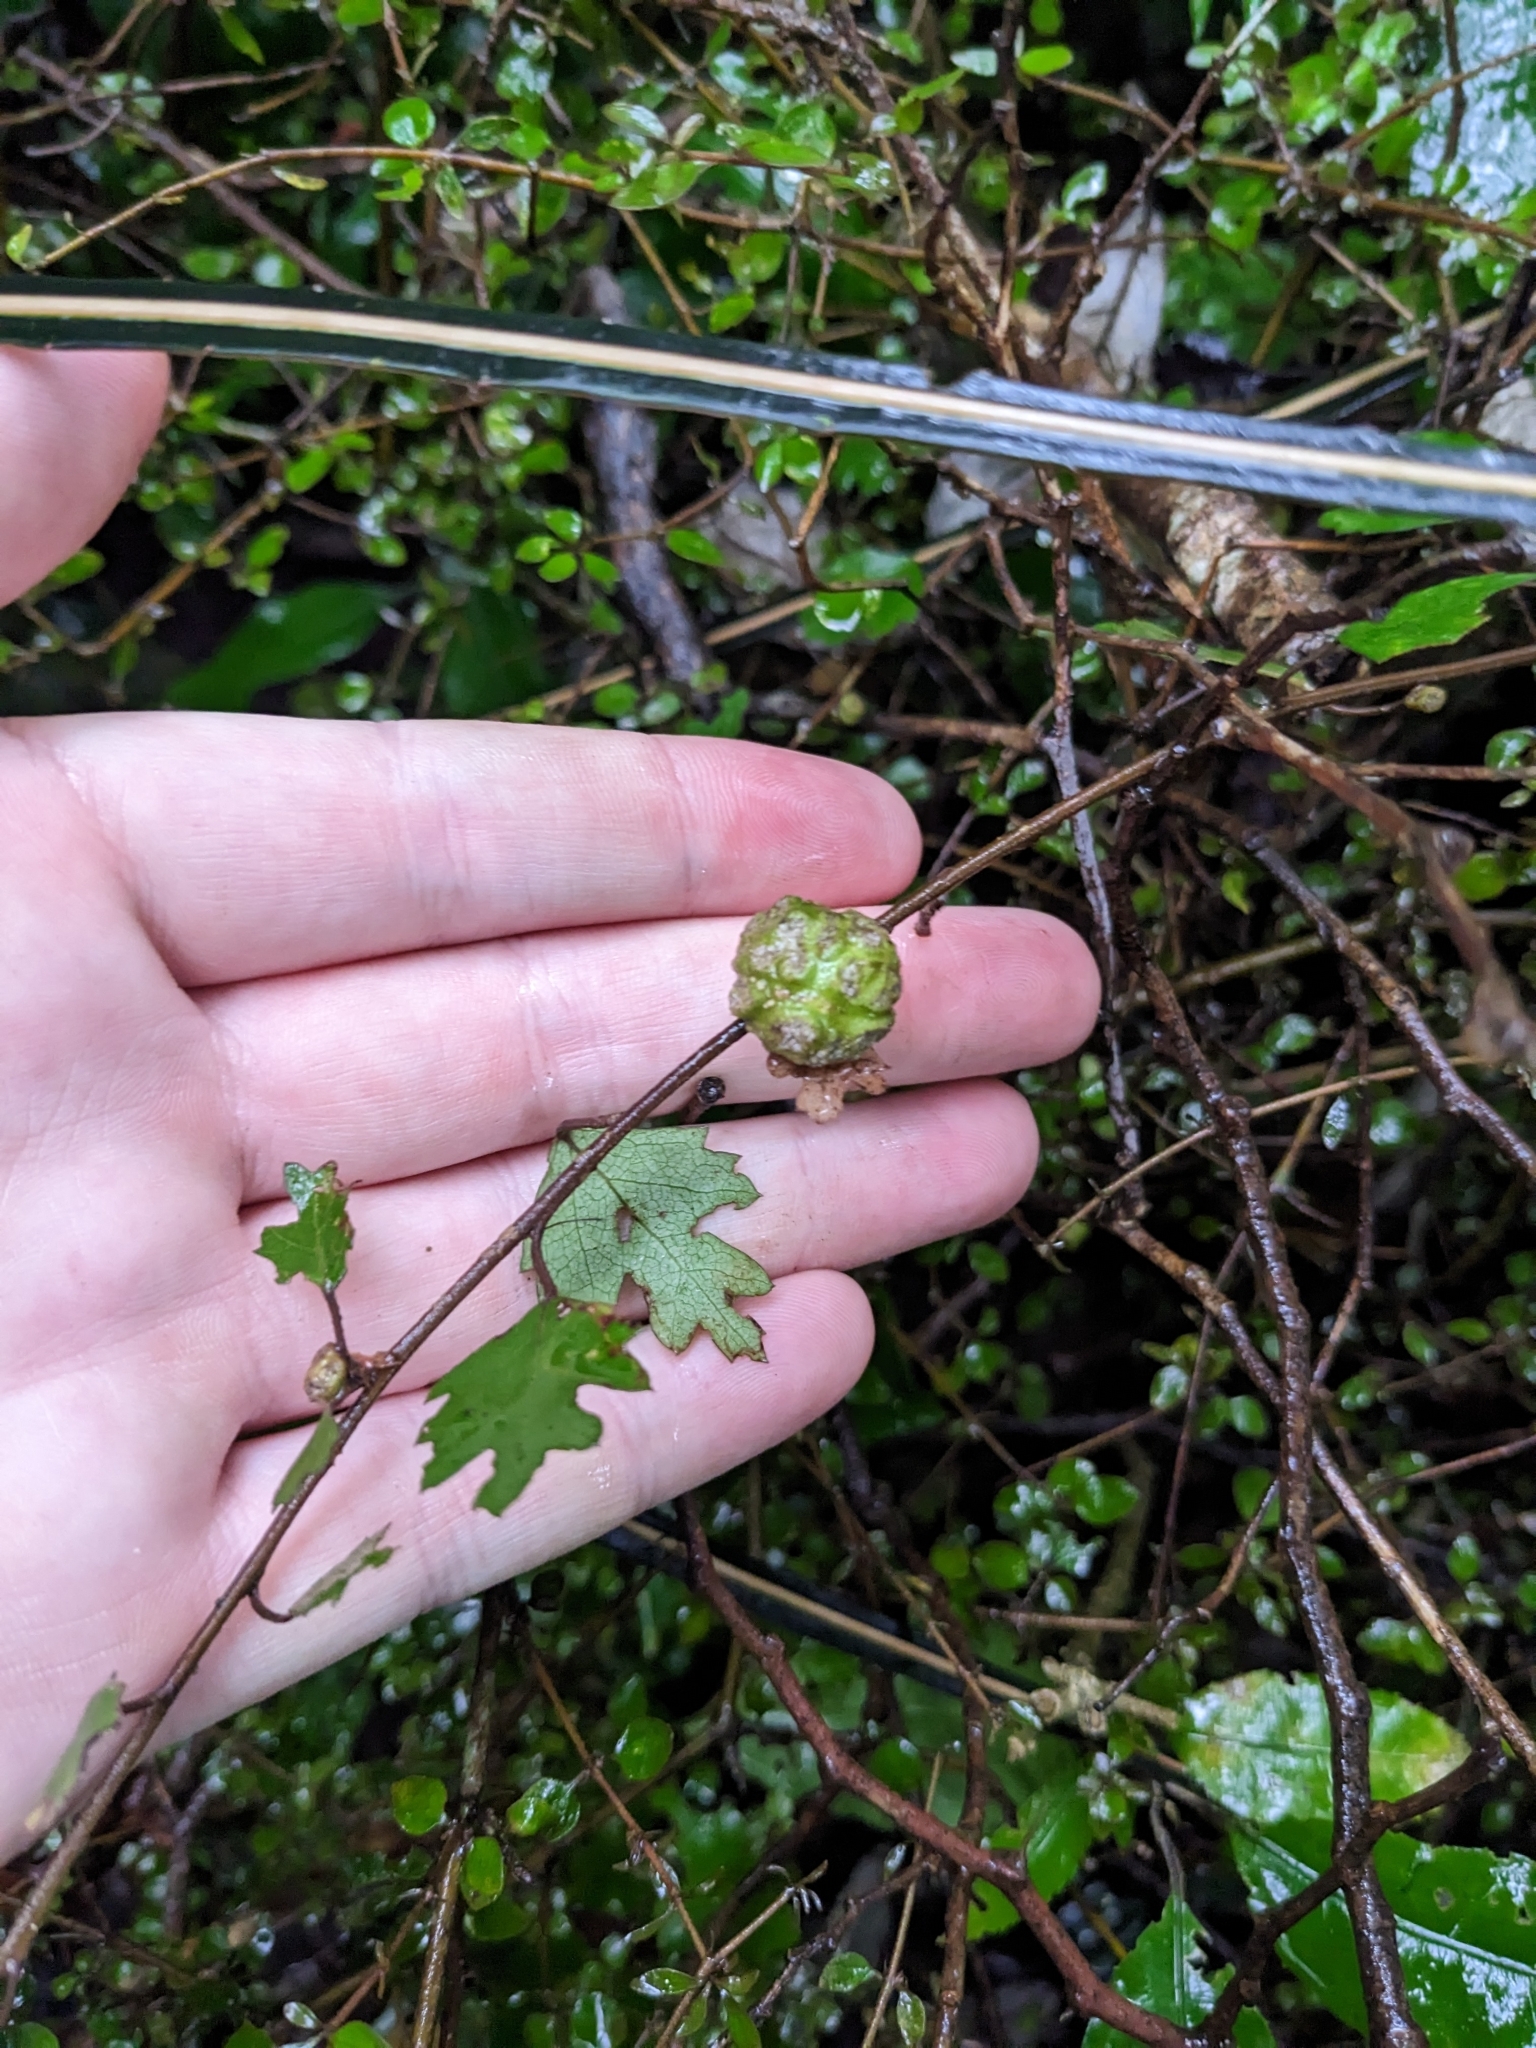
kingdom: Plantae
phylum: Tracheophyta
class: Magnoliopsida
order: Malvales
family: Malvaceae
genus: Hoheria
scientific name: Hoheria sexstylosa
